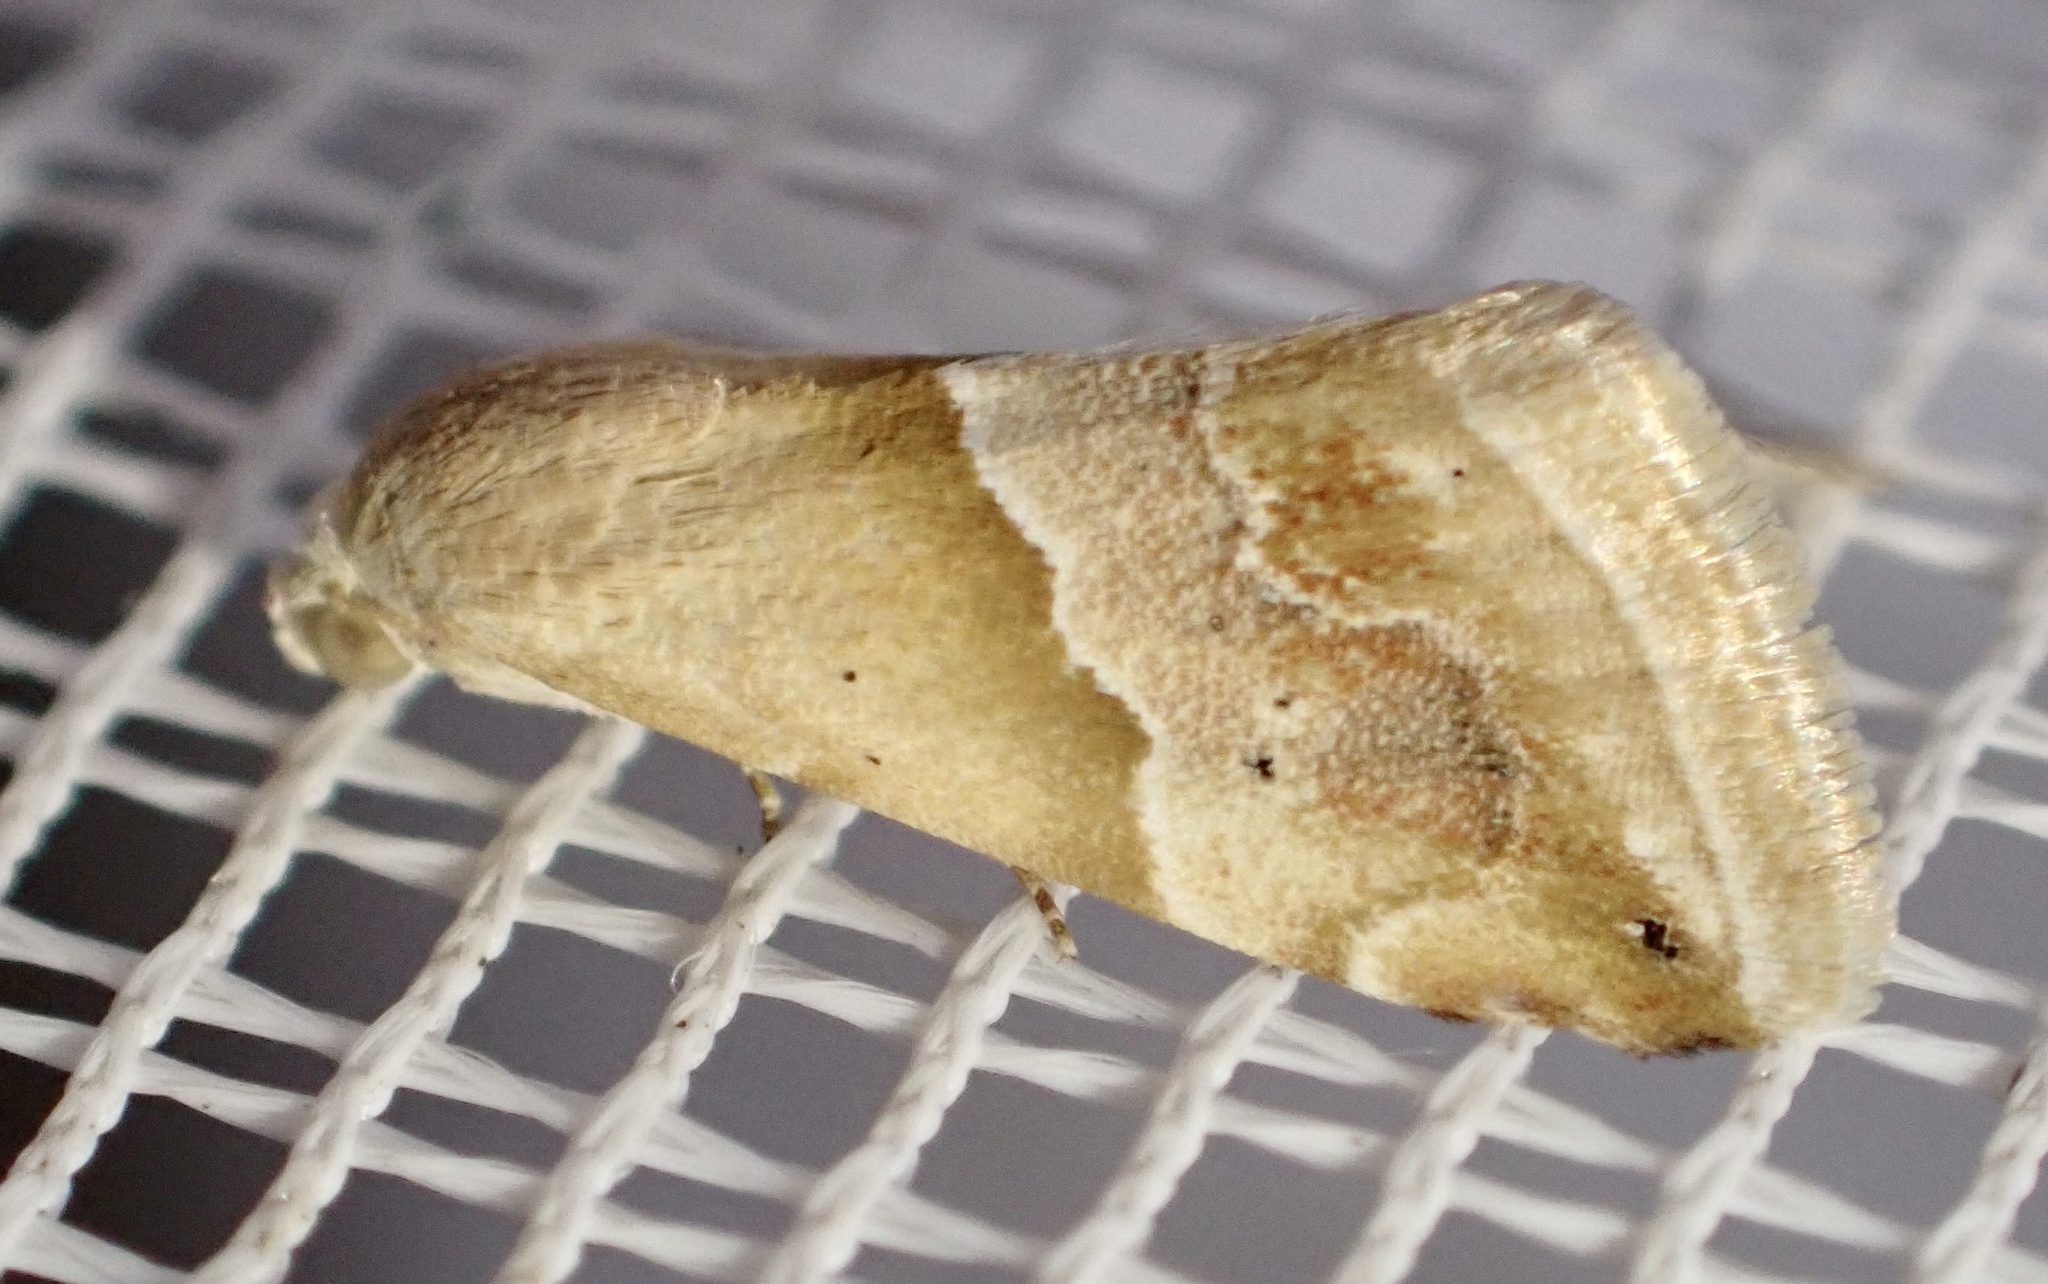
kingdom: Animalia
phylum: Arthropoda
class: Insecta
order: Lepidoptera
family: Noctuidae
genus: Eublemma
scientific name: Eublemma parva
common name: Small marbled
